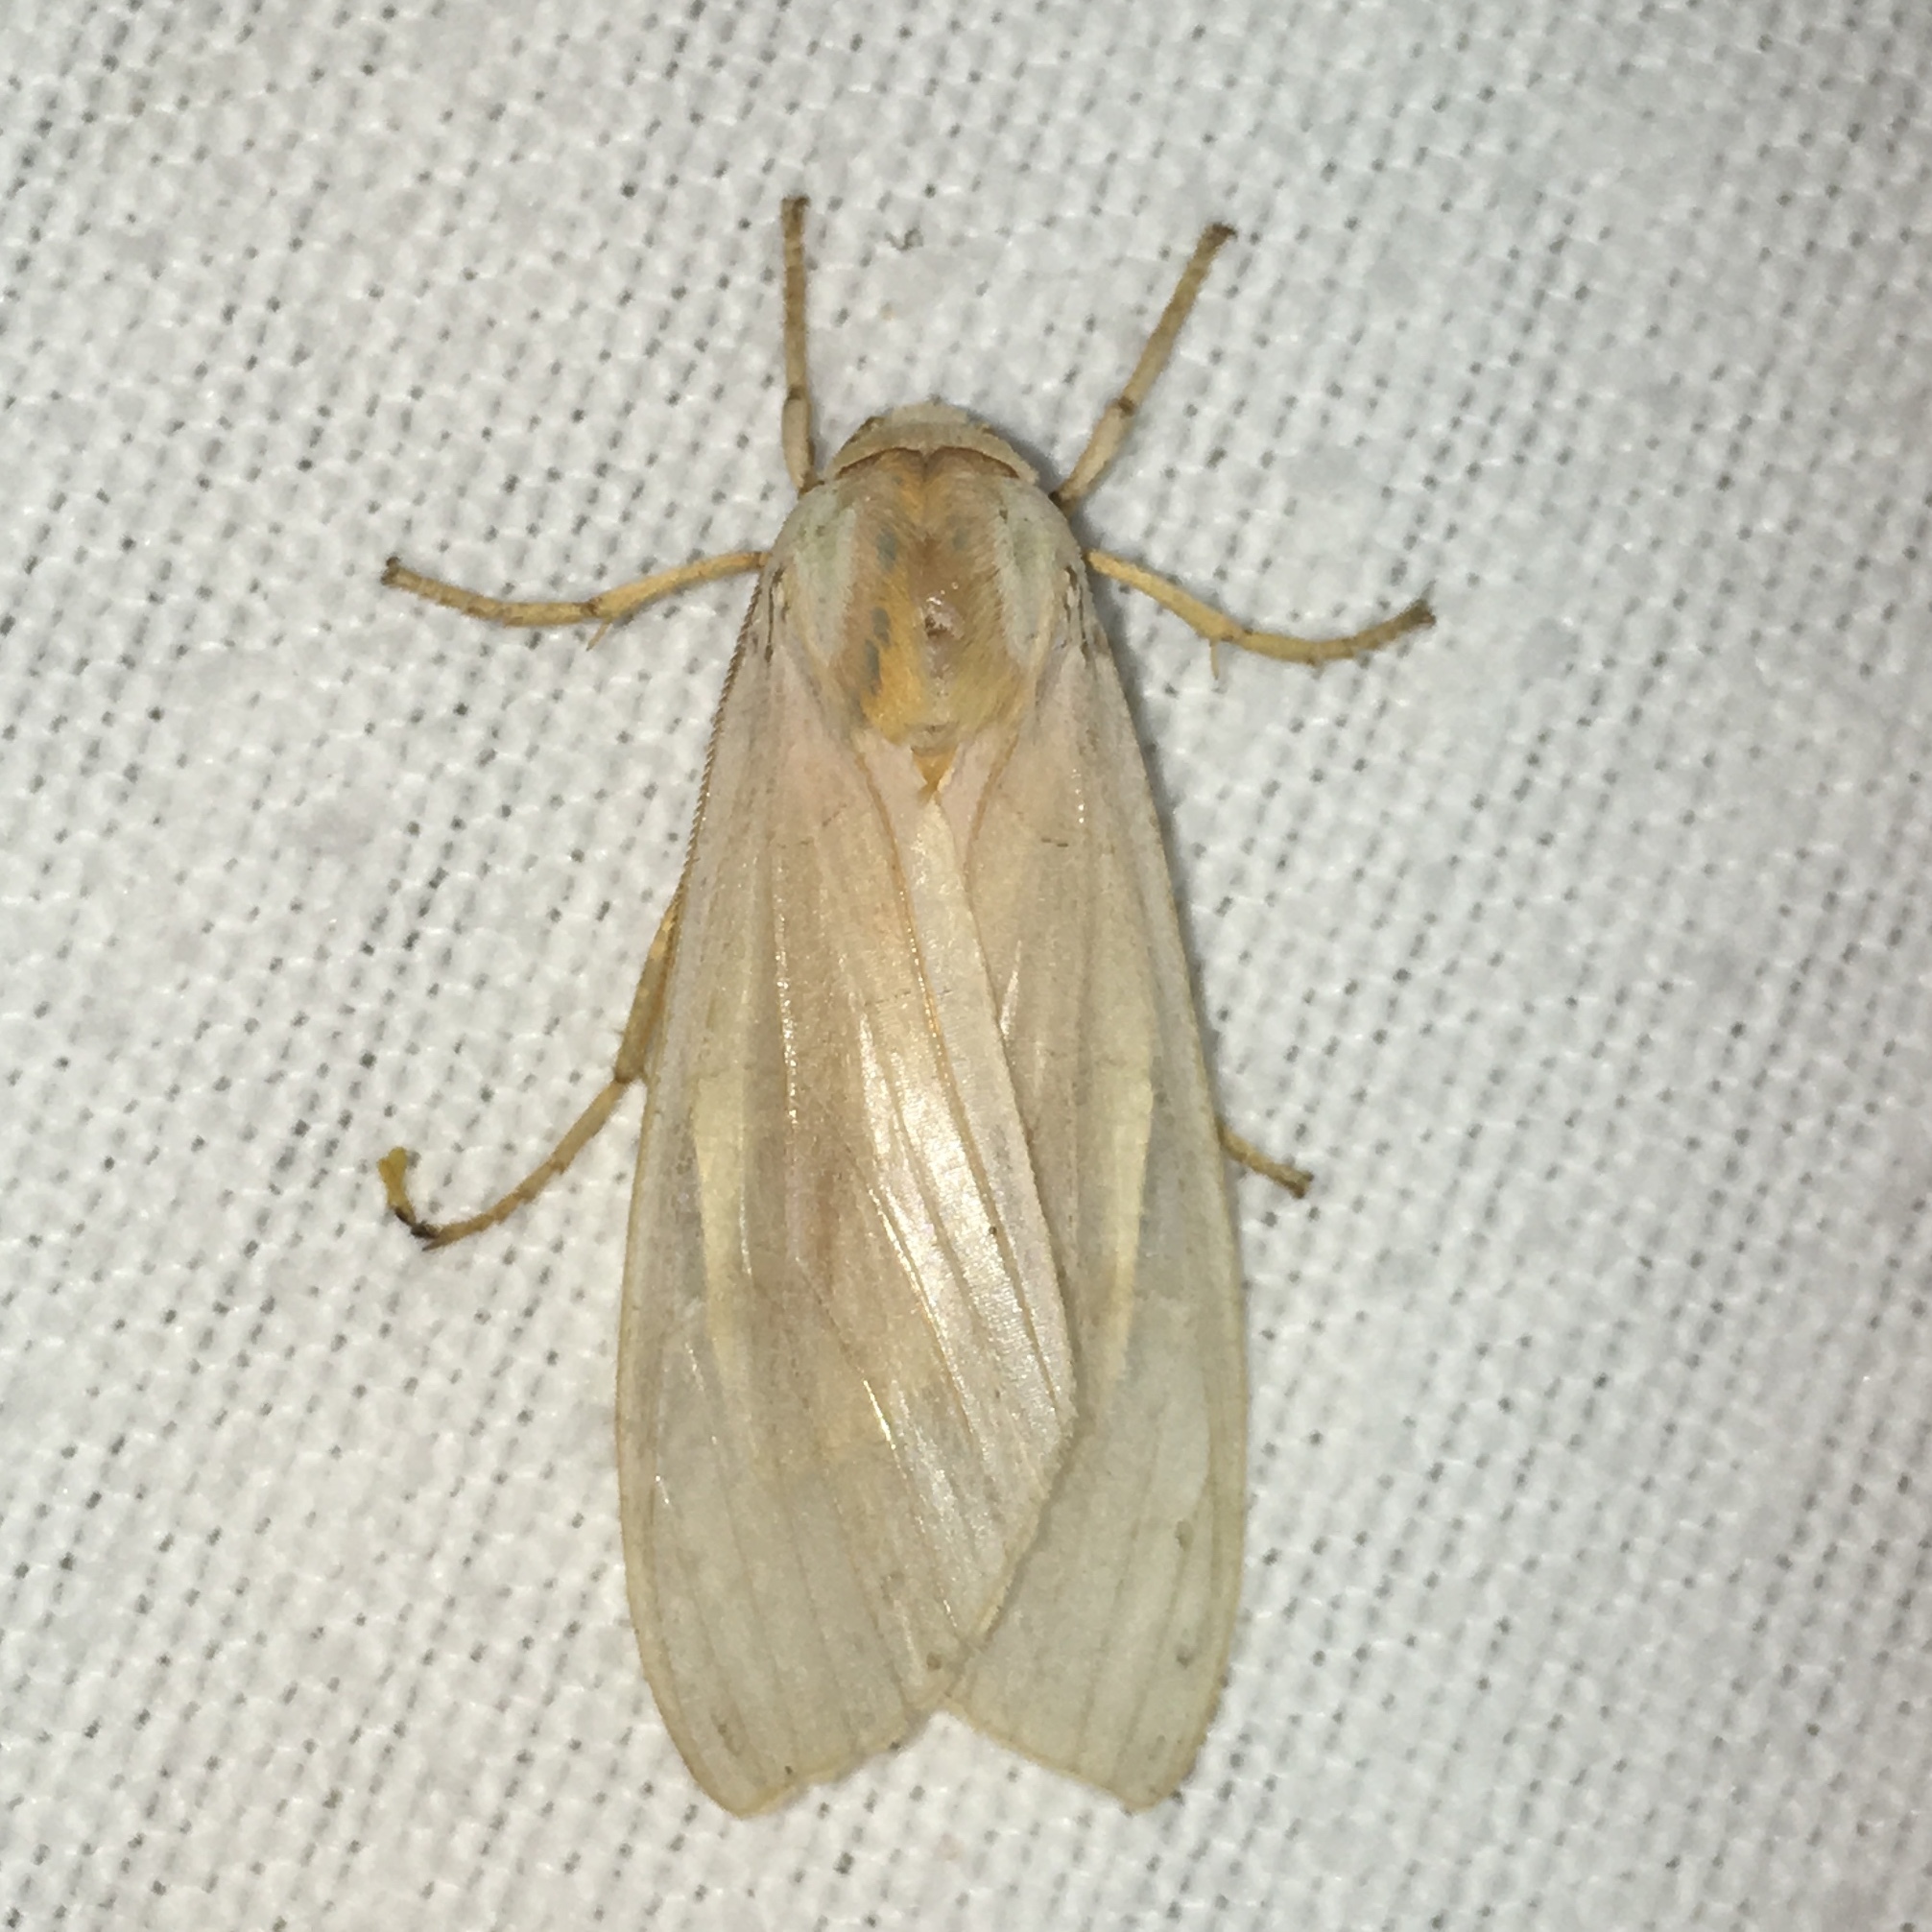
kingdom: Animalia
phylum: Arthropoda
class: Insecta
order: Lepidoptera
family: Erebidae
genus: Halysidota
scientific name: Halysidota tessellaris
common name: Banded tussock moth
